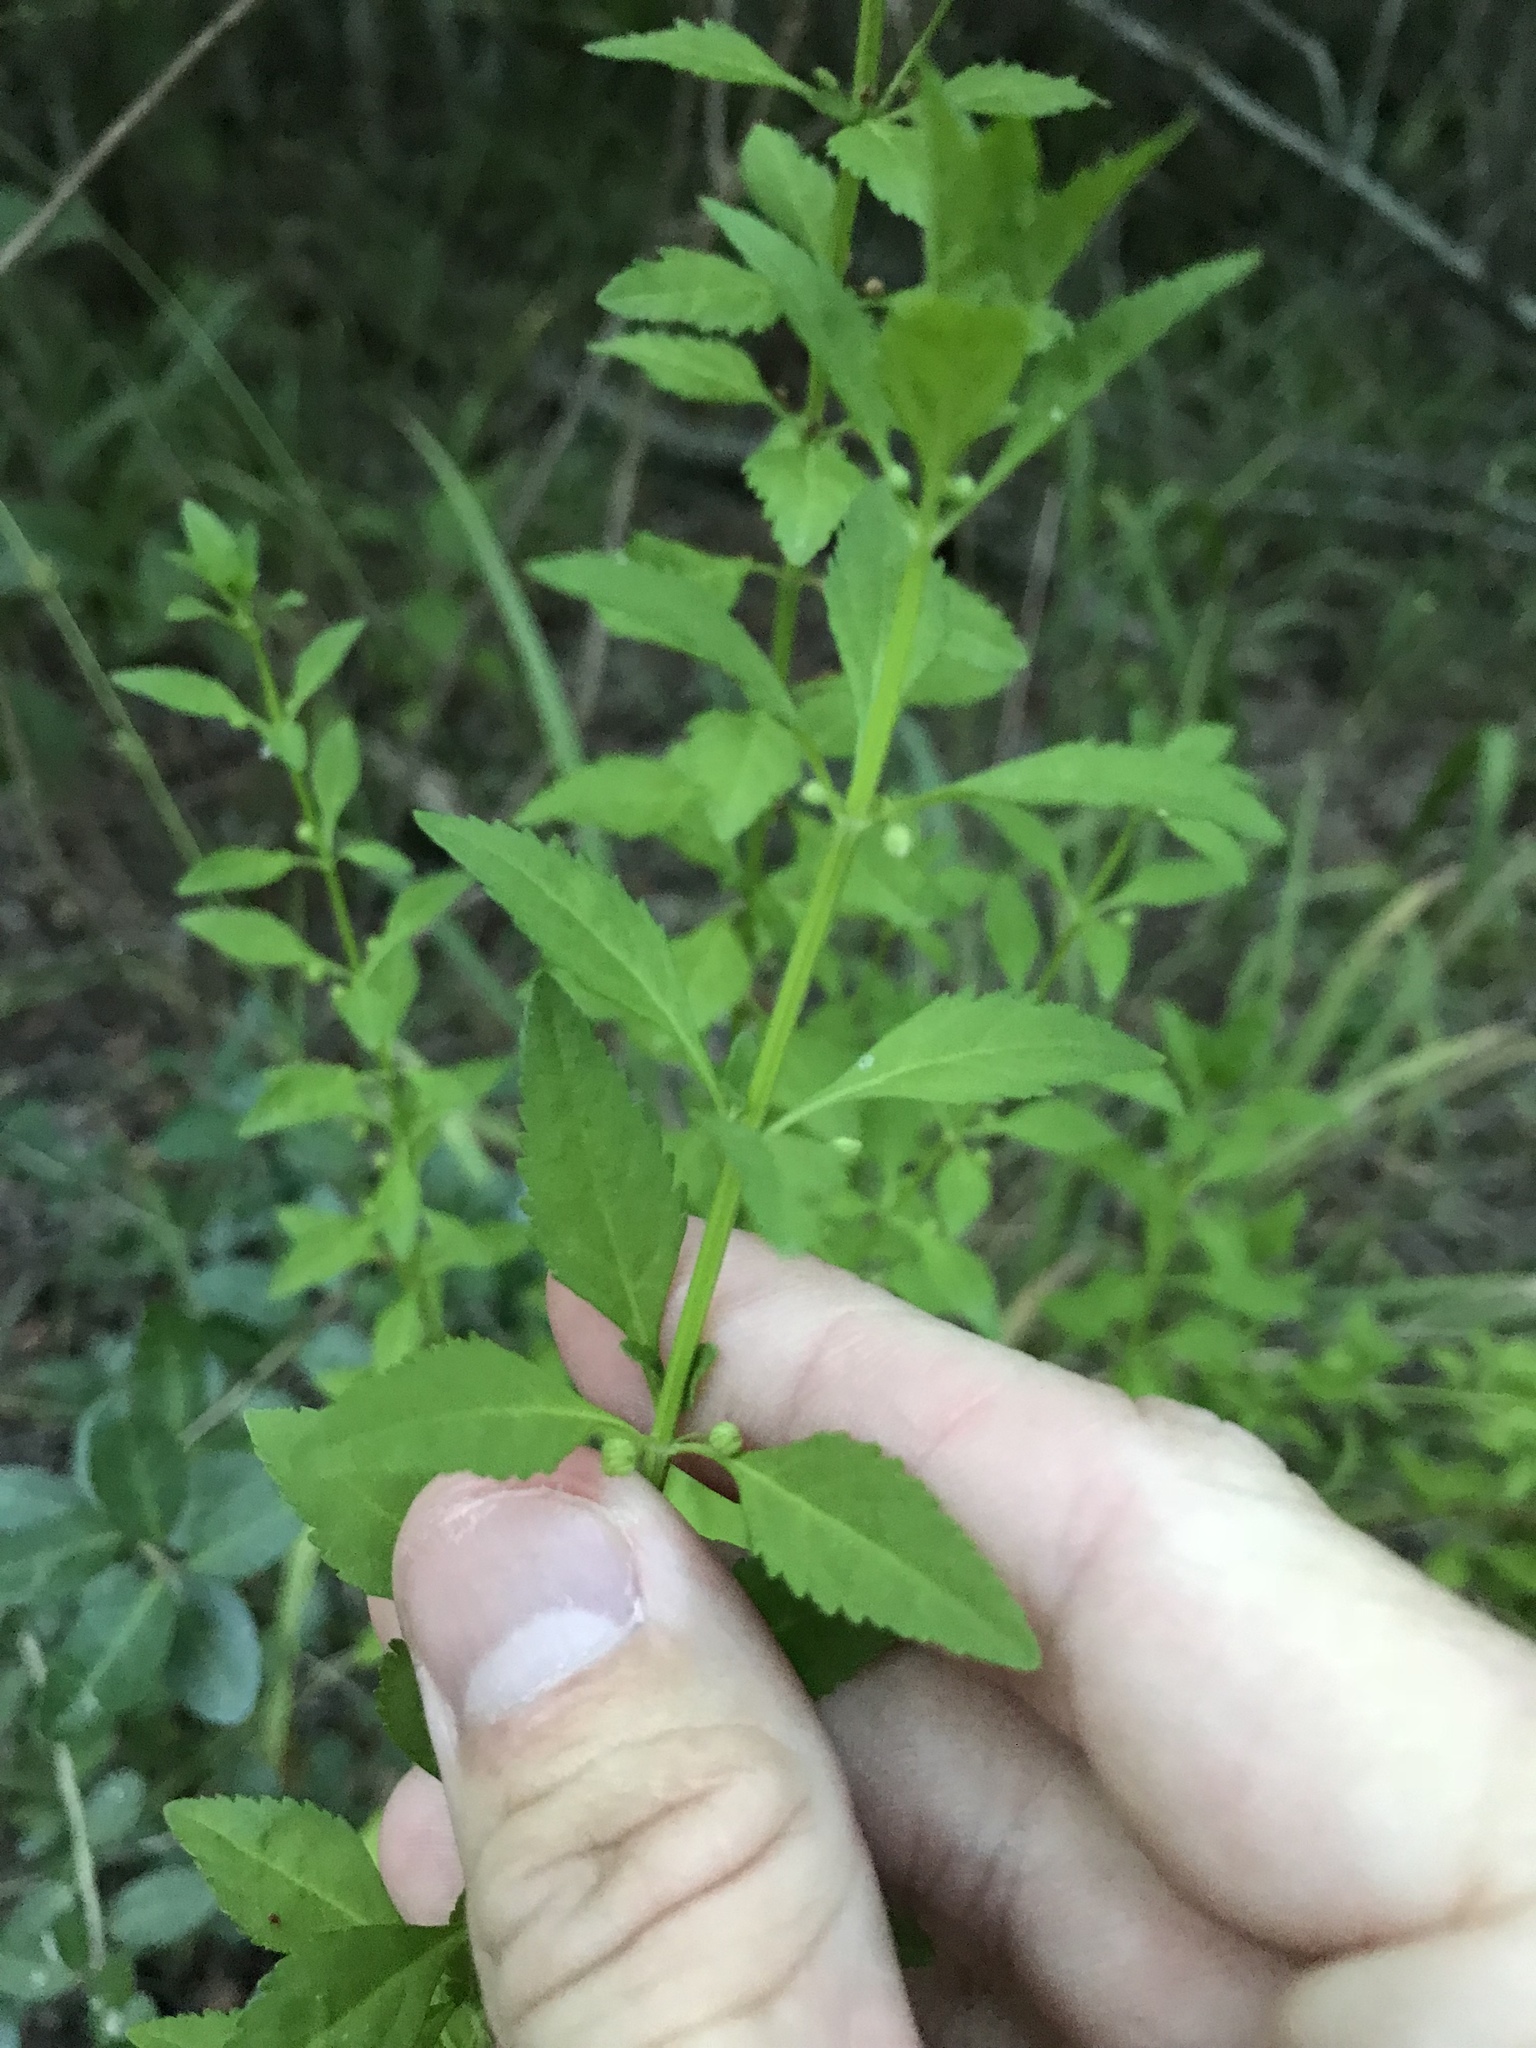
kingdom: Plantae
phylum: Tracheophyta
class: Magnoliopsida
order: Lamiales
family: Plantaginaceae
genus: Scoparia
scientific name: Scoparia dulcis
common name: Scoparia-weed
